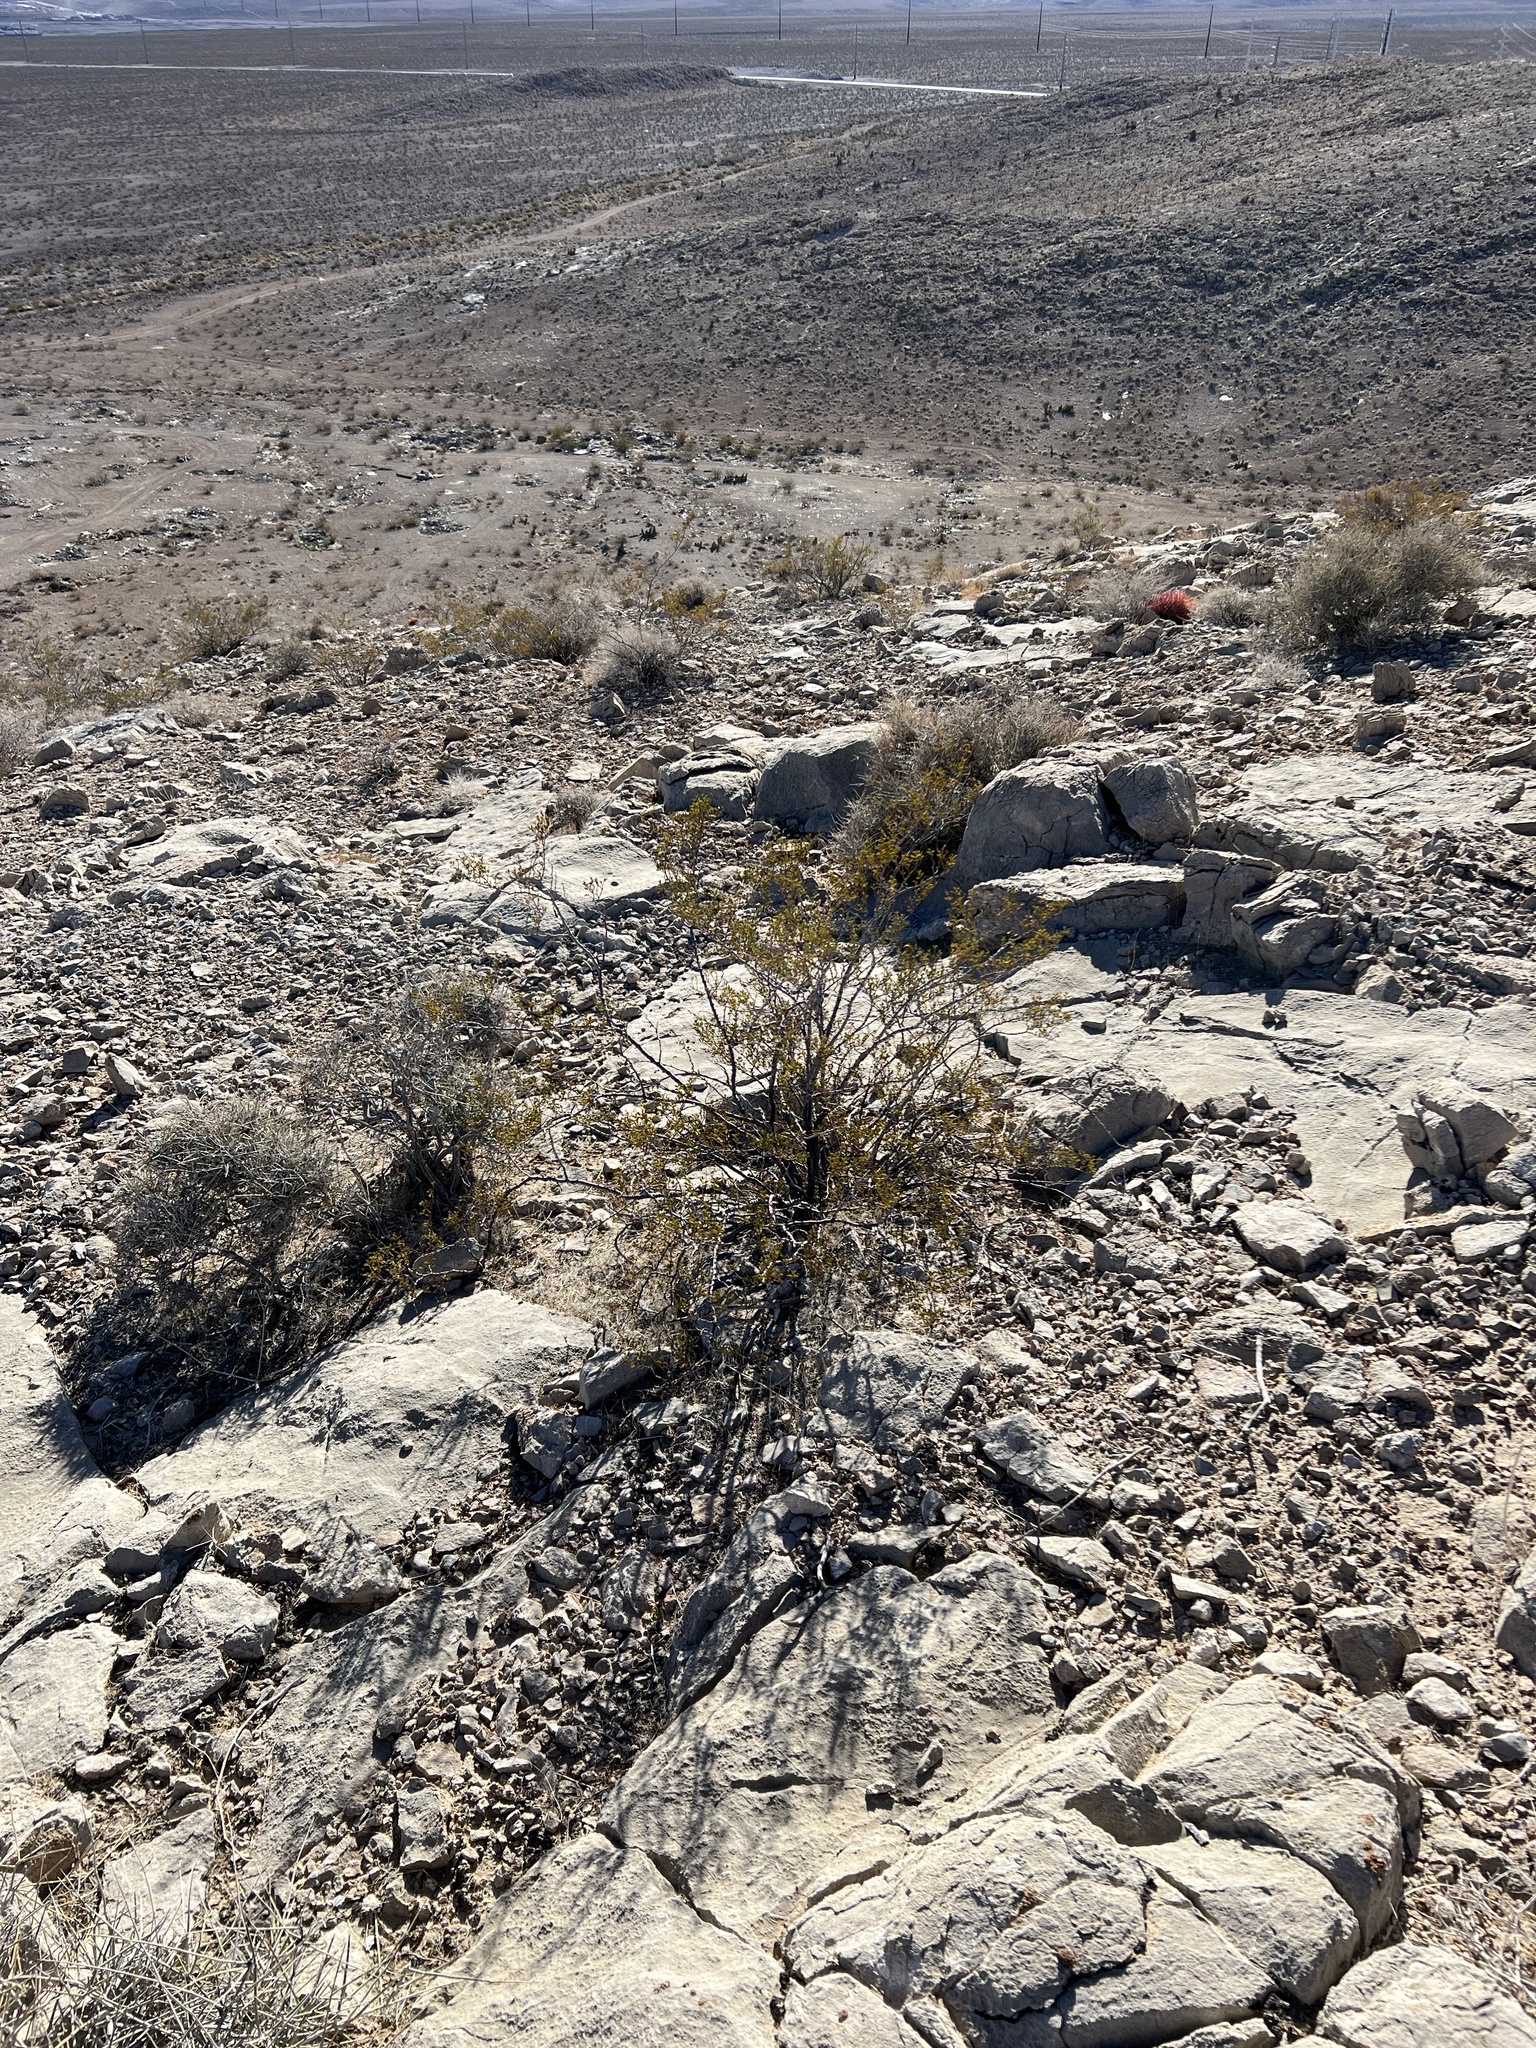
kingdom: Plantae
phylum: Tracheophyta
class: Magnoliopsida
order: Zygophyllales
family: Zygophyllaceae
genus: Larrea
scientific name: Larrea tridentata
